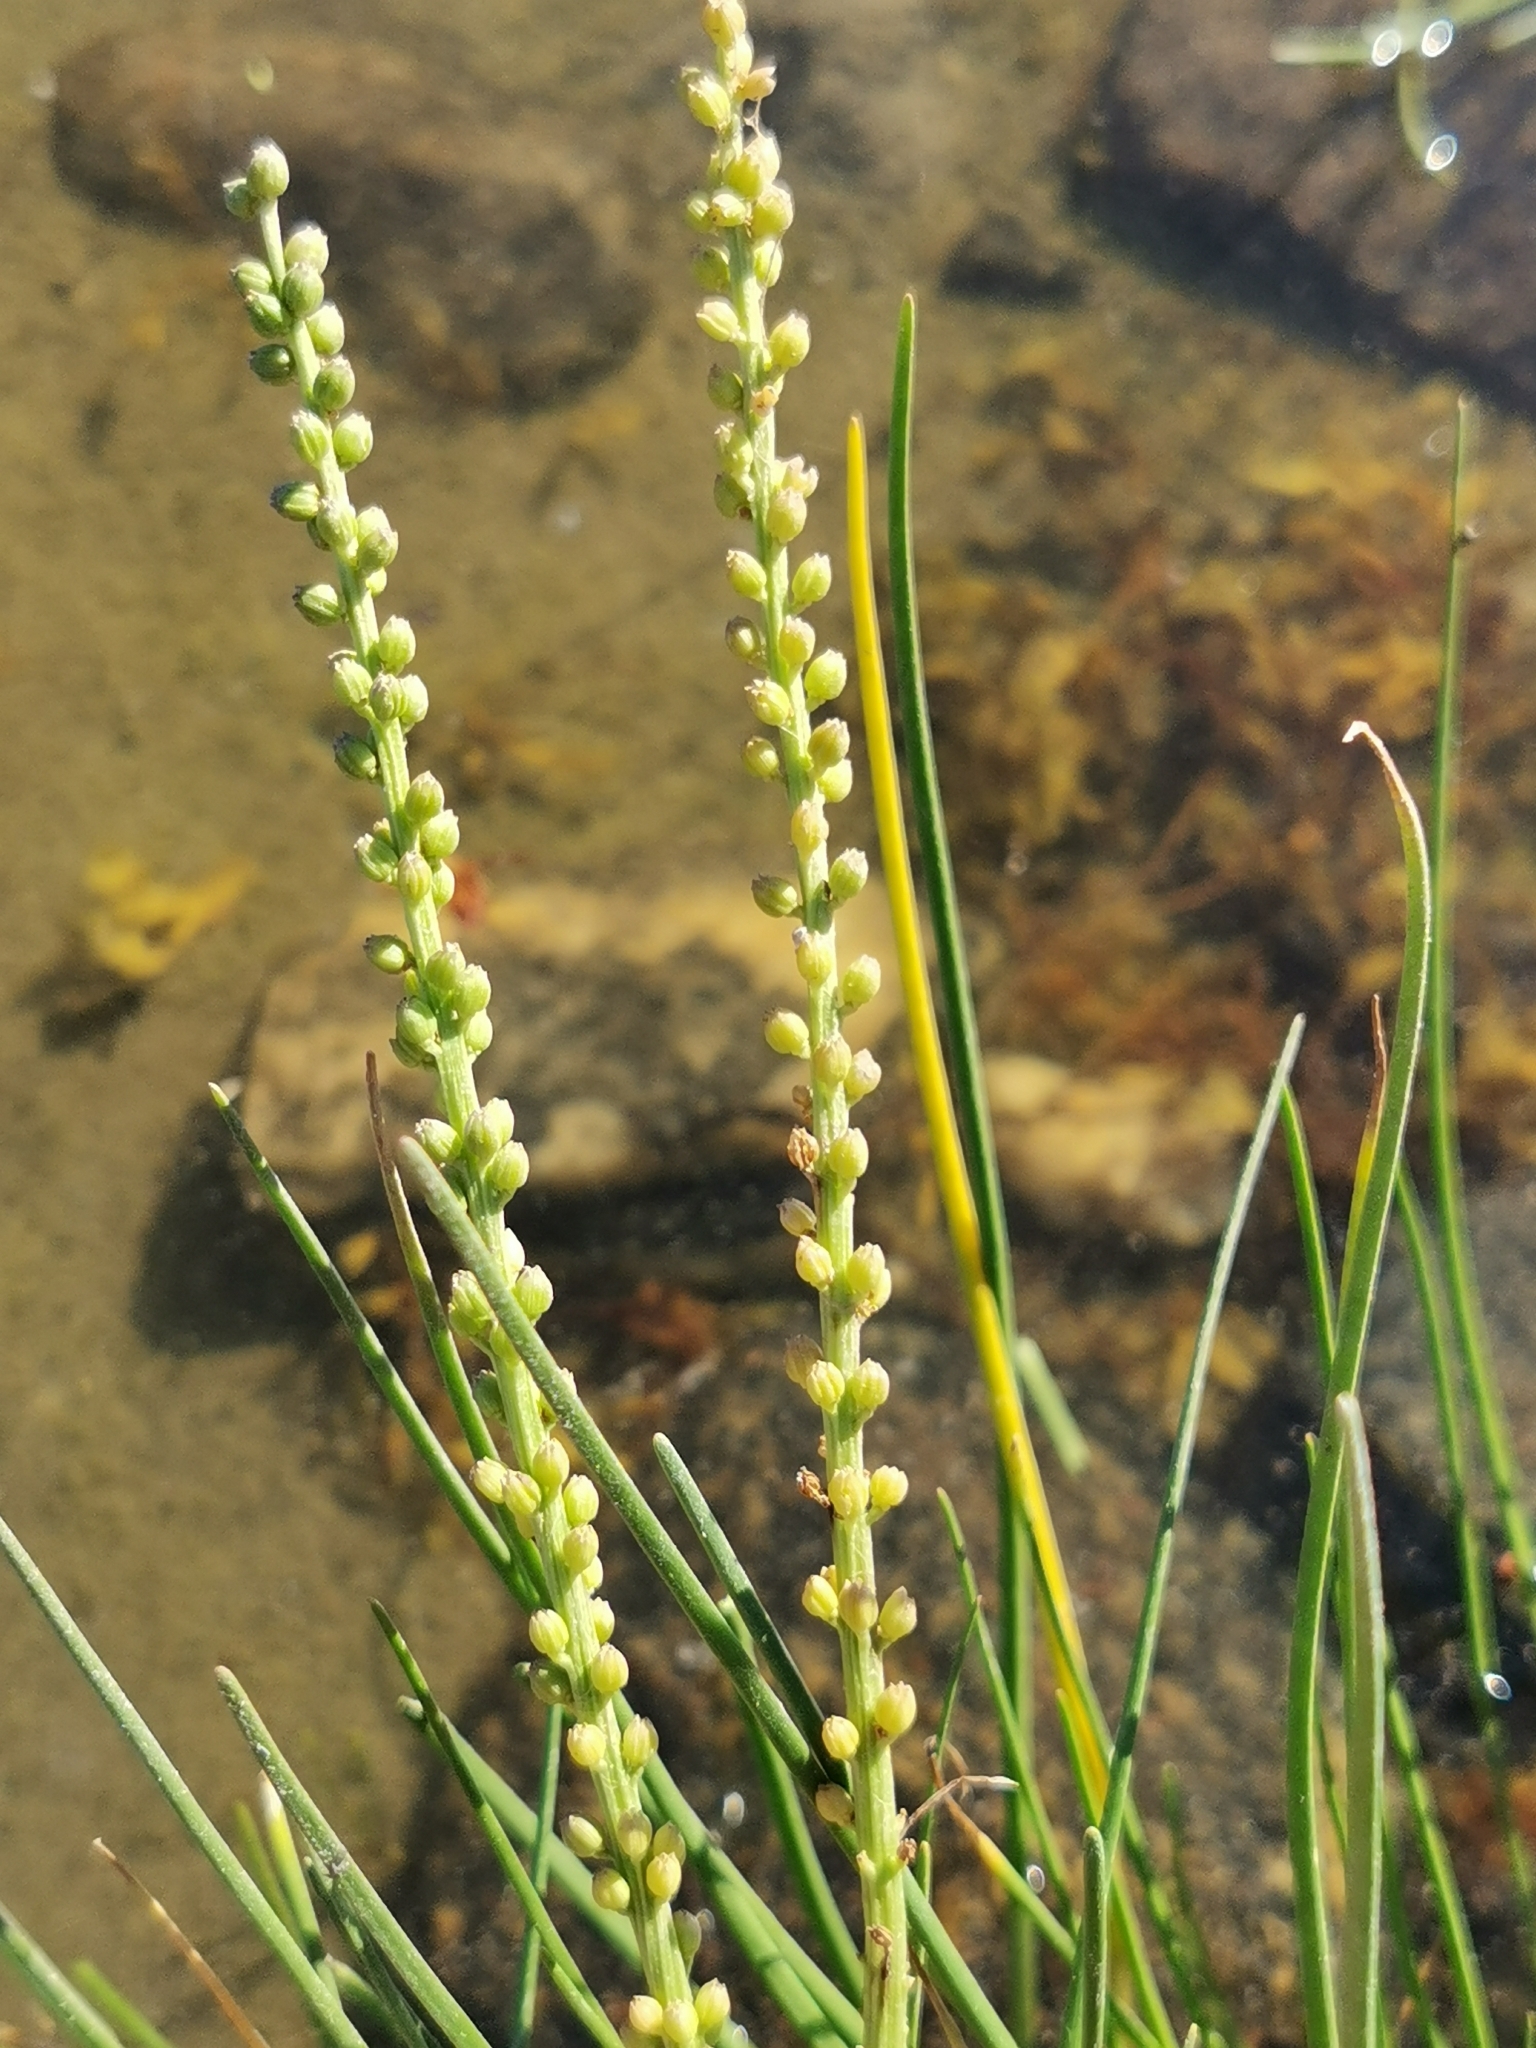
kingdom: Plantae
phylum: Tracheophyta
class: Liliopsida
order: Alismatales
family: Juncaginaceae
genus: Triglochin
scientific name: Triglochin maritima
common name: Sea arrowgrass
